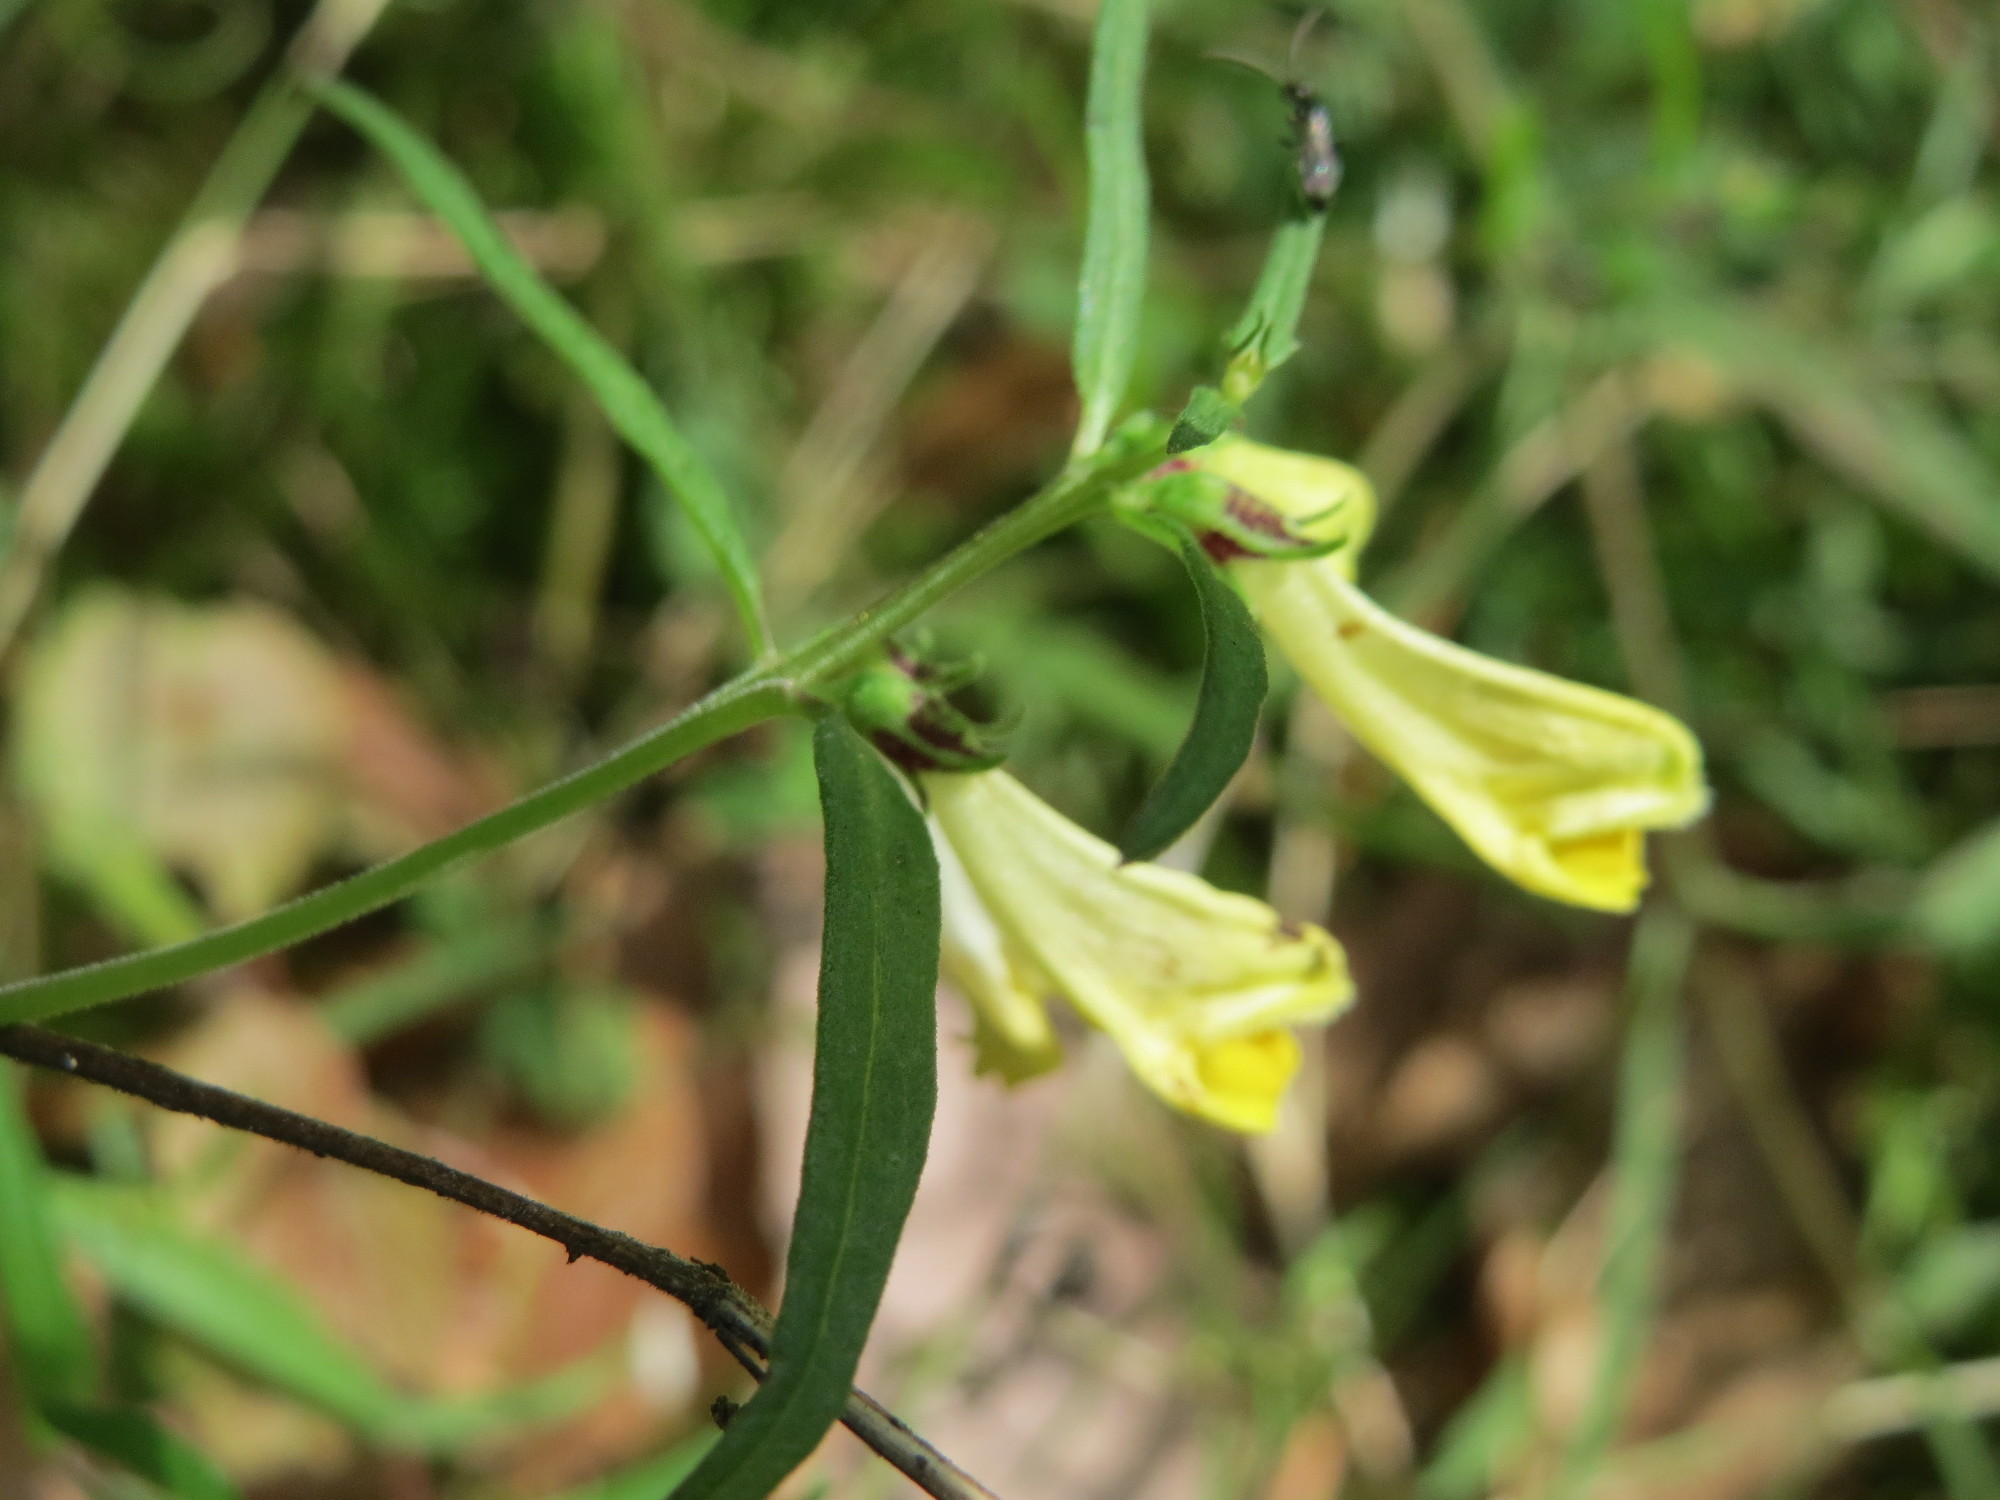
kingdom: Plantae
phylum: Tracheophyta
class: Magnoliopsida
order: Lamiales
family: Orobanchaceae
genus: Melampyrum
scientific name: Melampyrum pratense
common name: Common cow-wheat
